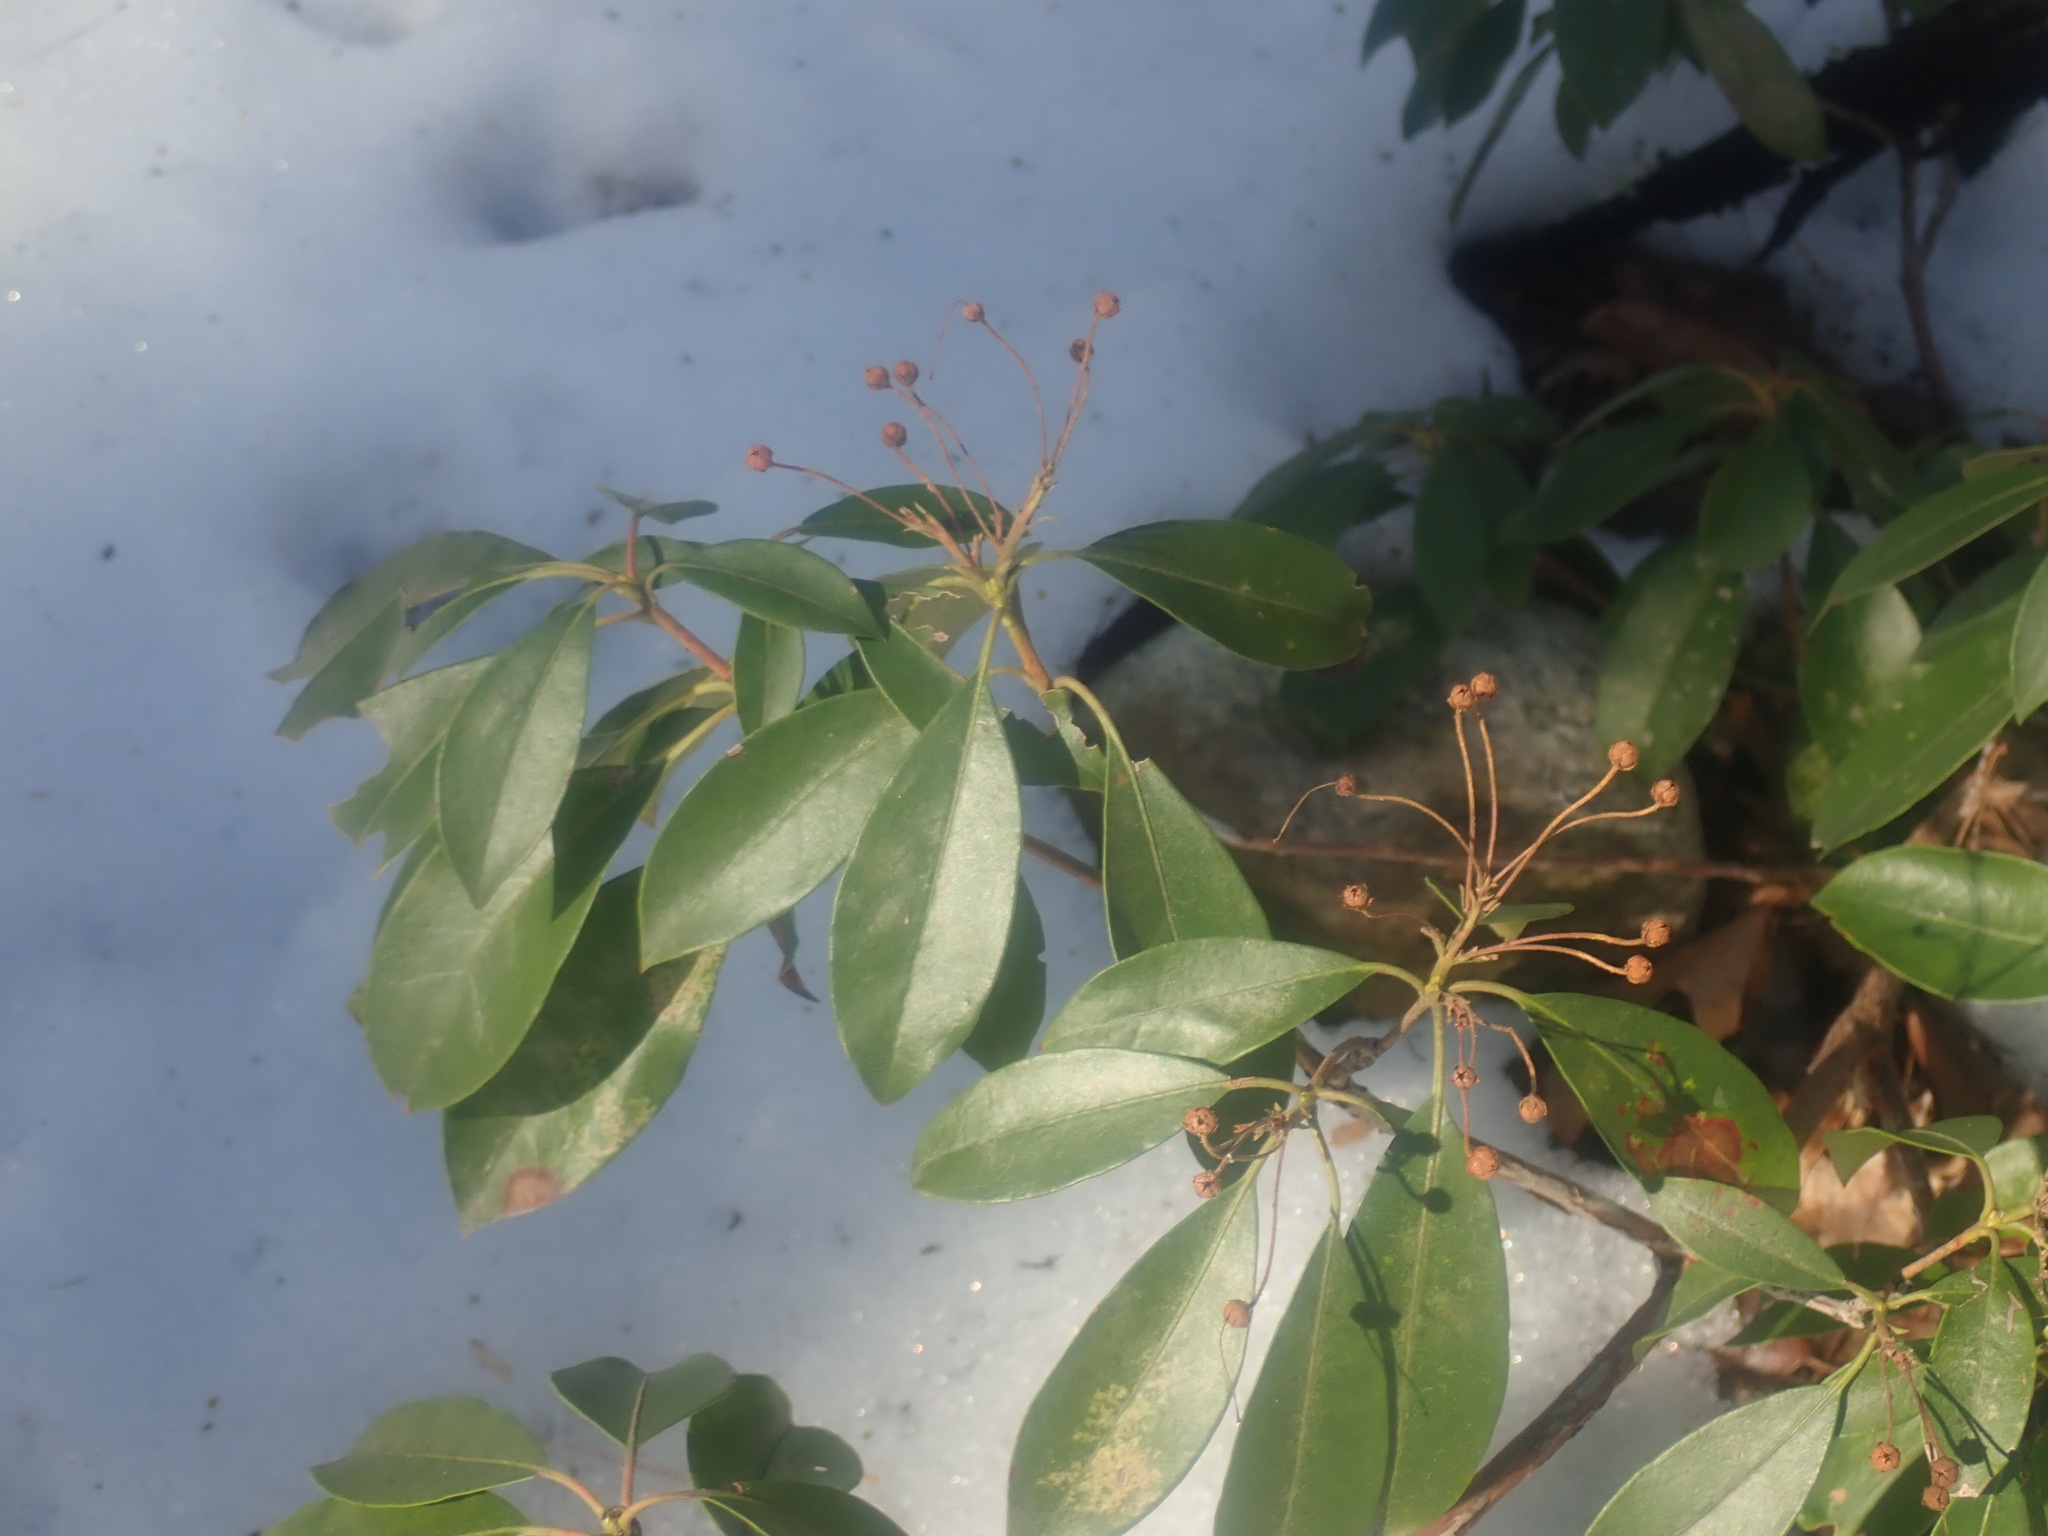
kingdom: Plantae
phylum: Tracheophyta
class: Magnoliopsida
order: Ericales
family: Ericaceae
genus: Kalmia
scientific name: Kalmia latifolia
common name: Mountain-laurel
